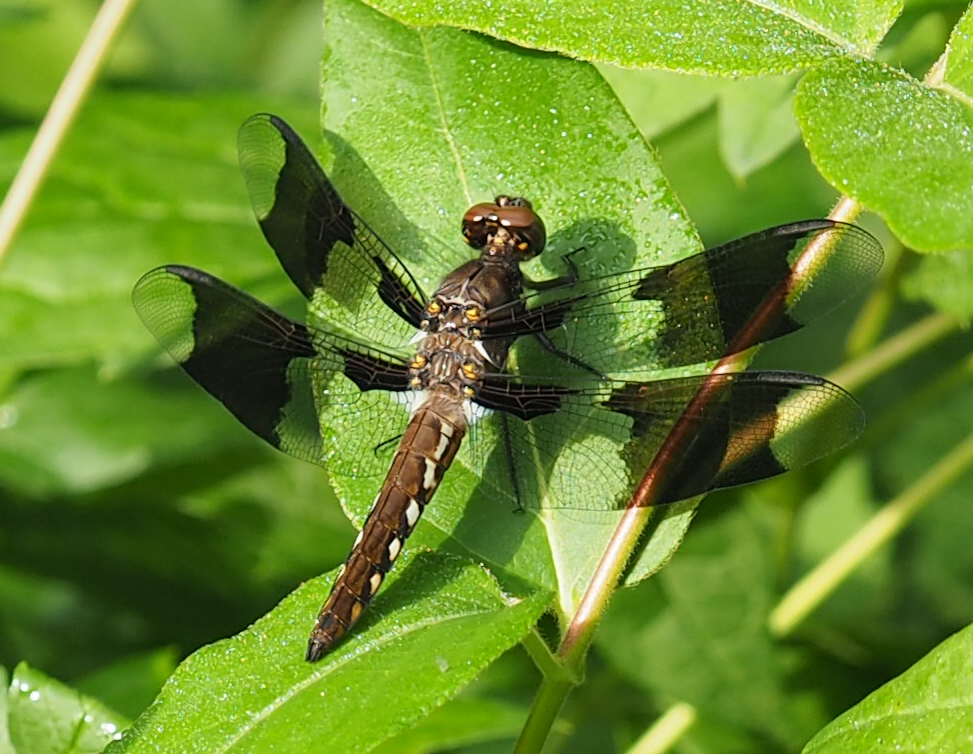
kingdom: Animalia
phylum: Arthropoda
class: Insecta
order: Odonata
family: Libellulidae
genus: Plathemis
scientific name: Plathemis lydia
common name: Common whitetail
